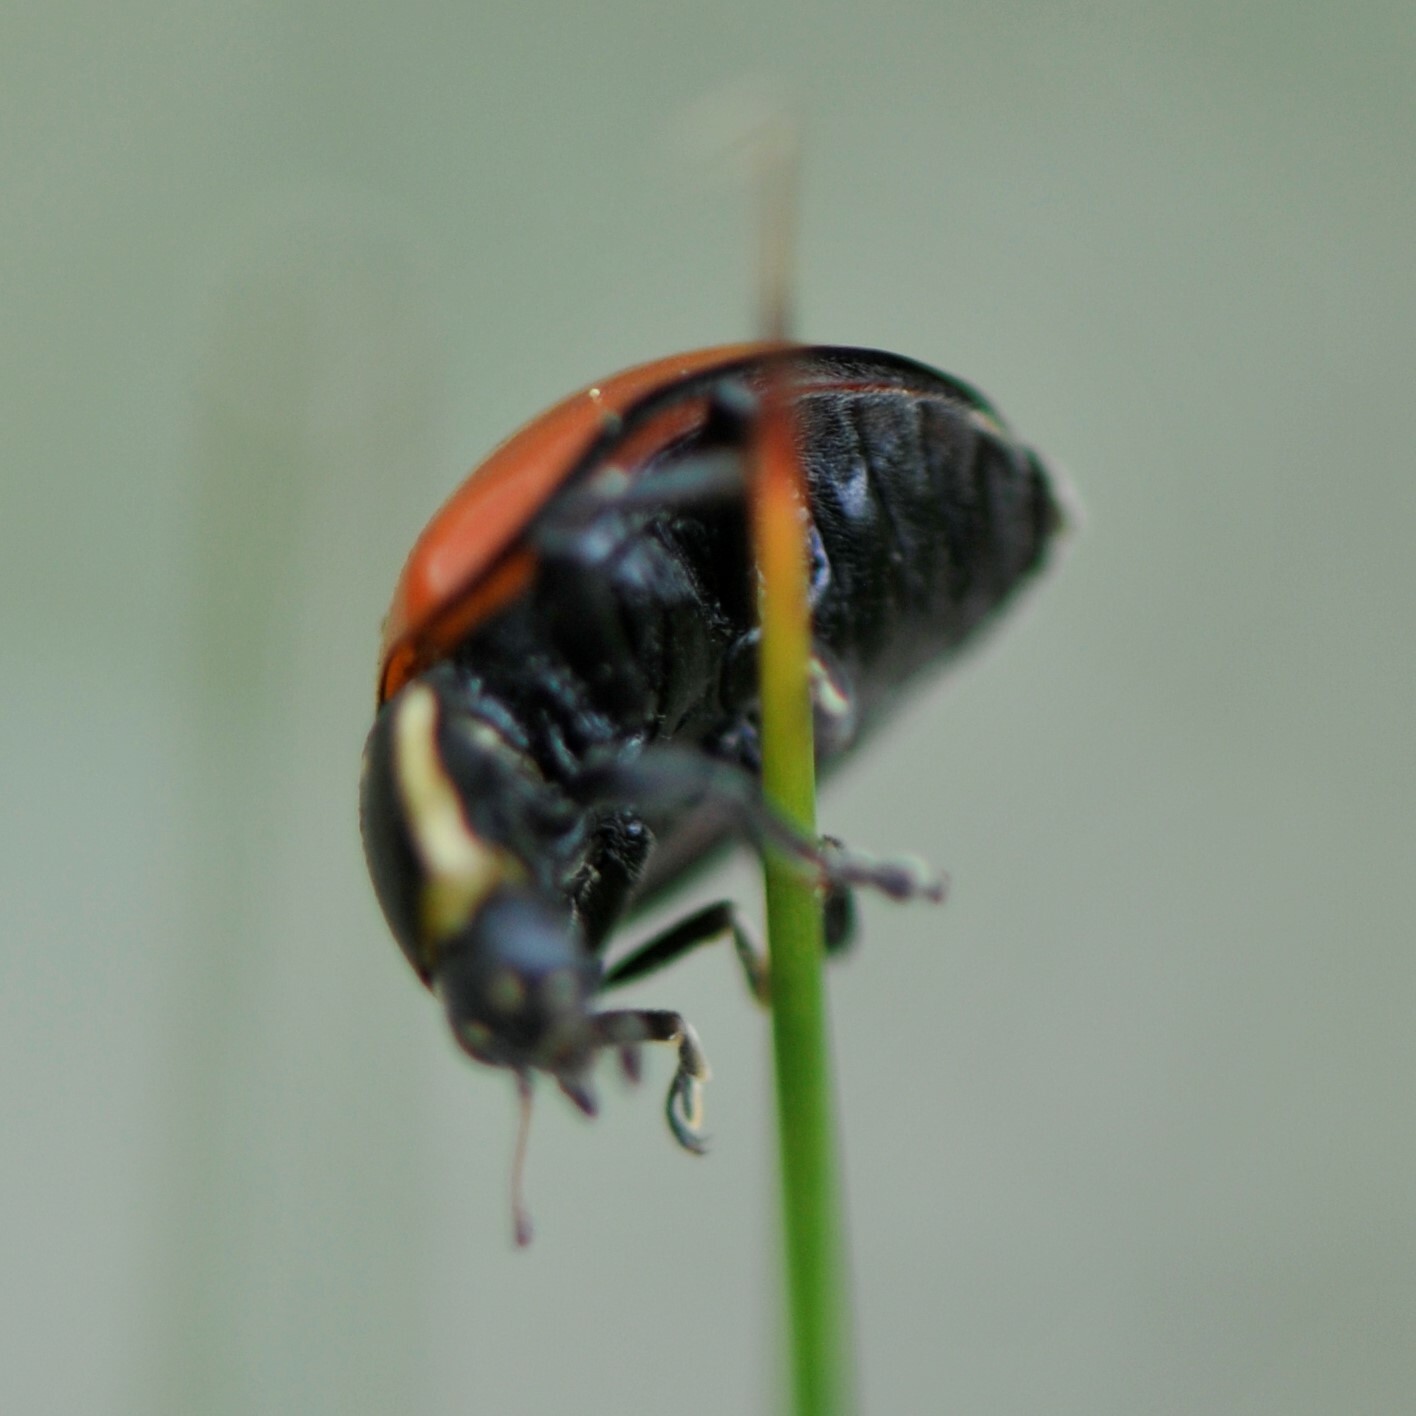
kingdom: Animalia
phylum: Arthropoda
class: Insecta
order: Coleoptera
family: Coccinellidae
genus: Anatis
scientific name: Anatis lecontei
